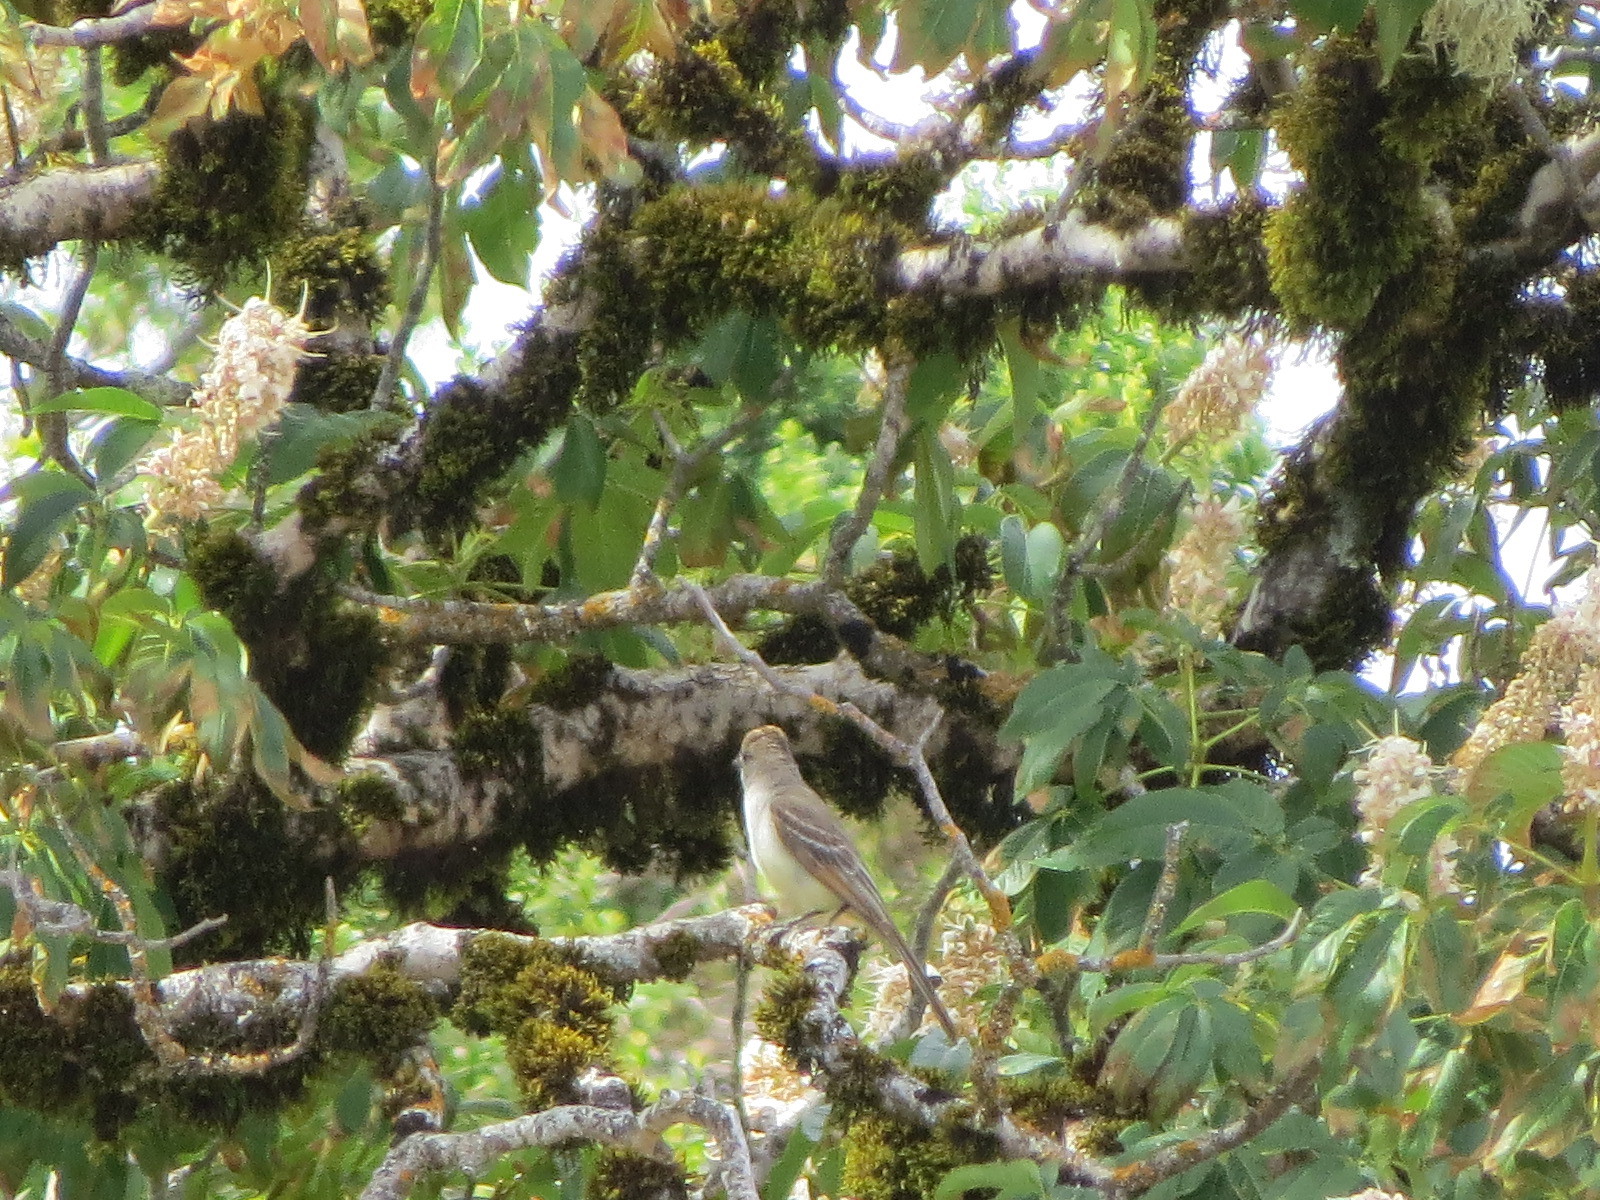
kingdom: Animalia
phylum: Chordata
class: Aves
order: Passeriformes
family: Tyrannidae
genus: Myiarchus
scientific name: Myiarchus cinerascens
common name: Ash-throated flycatcher
